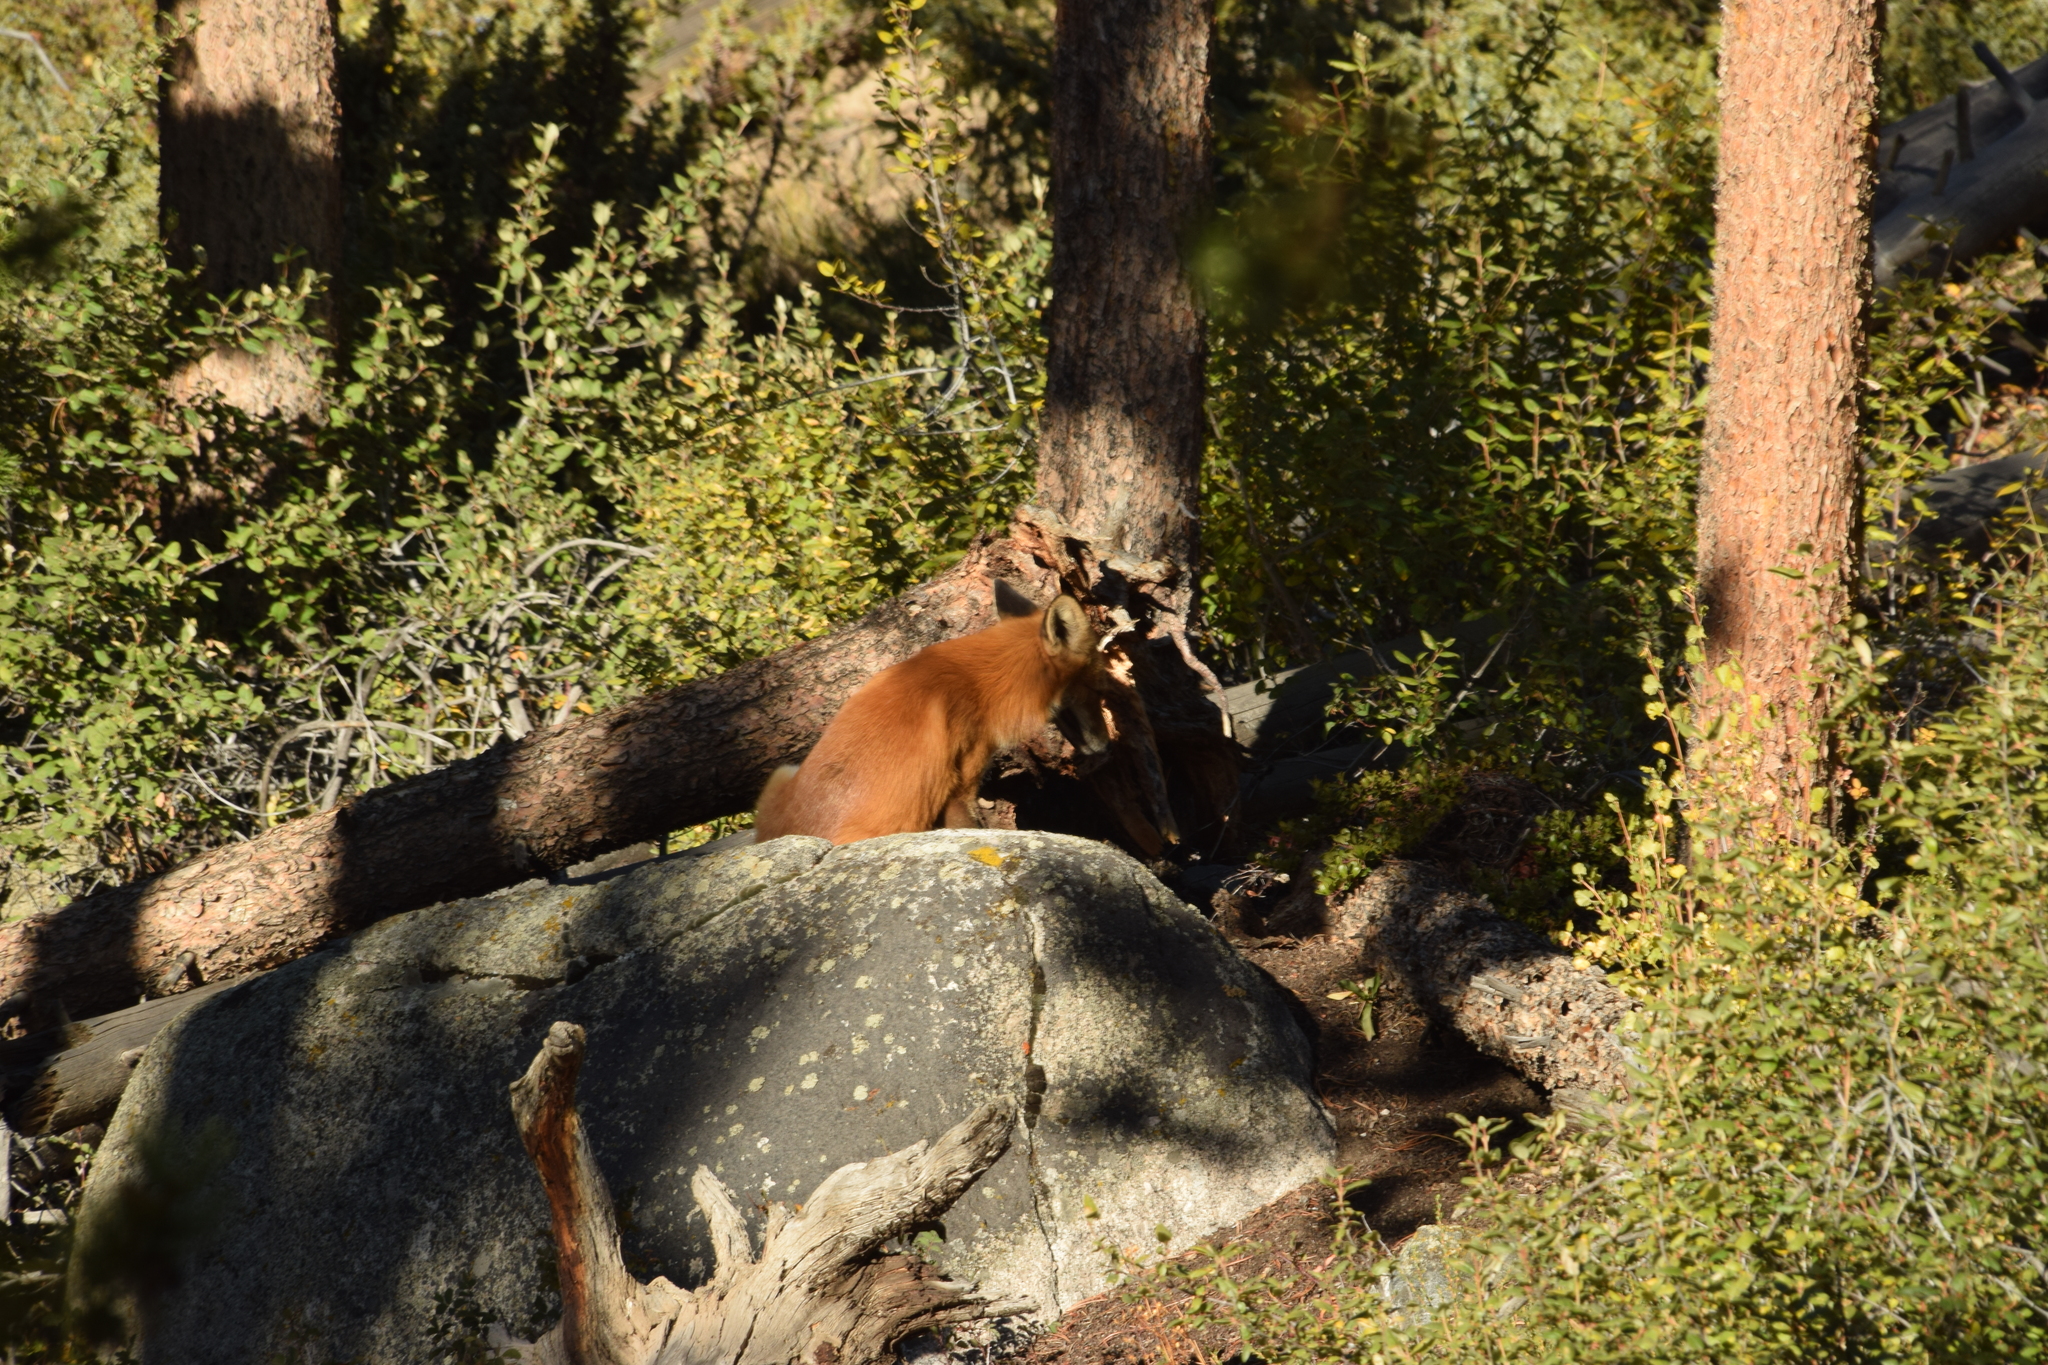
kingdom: Animalia
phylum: Chordata
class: Mammalia
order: Carnivora
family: Canidae
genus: Vulpes
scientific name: Vulpes vulpes
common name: Red fox
